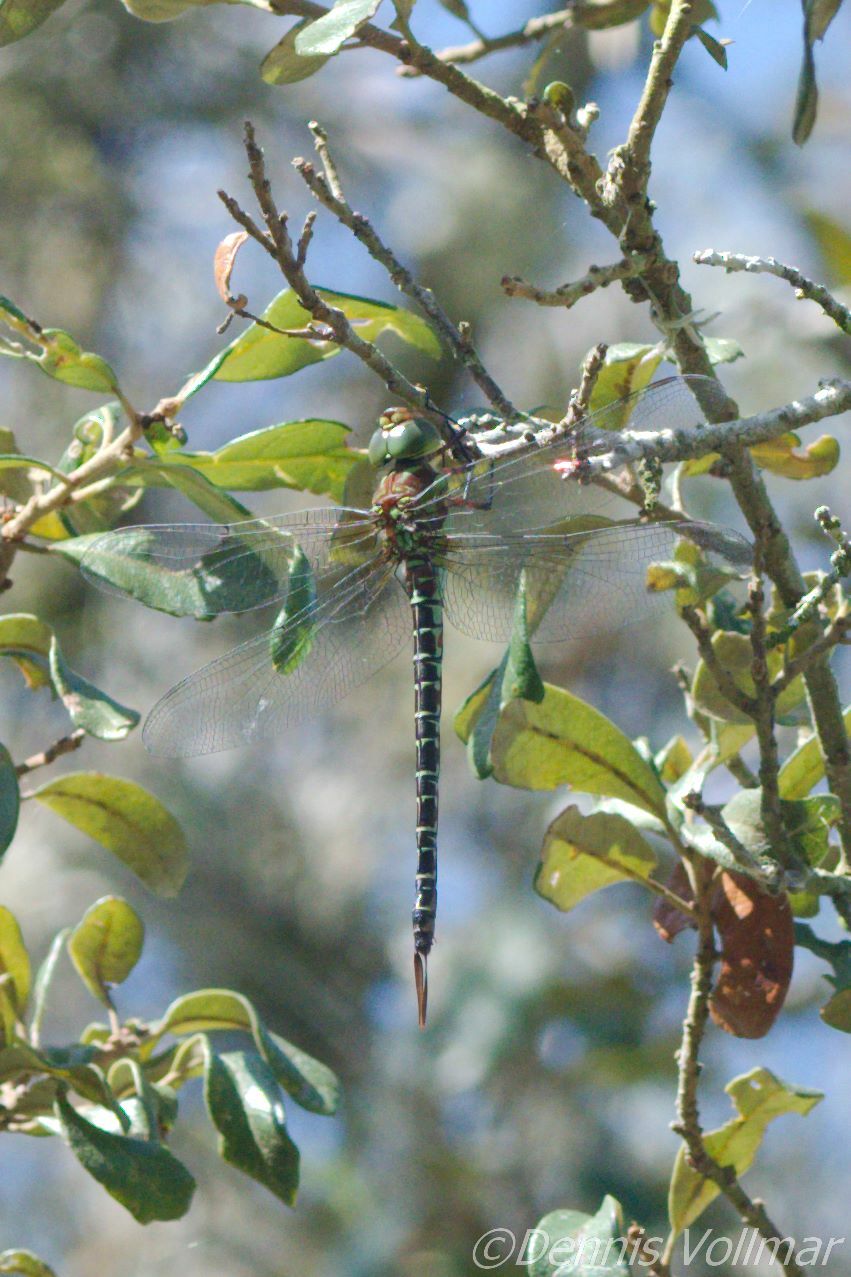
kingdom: Animalia
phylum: Arthropoda
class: Insecta
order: Odonata
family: Aeshnidae
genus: Coryphaeschna
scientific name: Coryphaeschna ingens
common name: Regal darner
